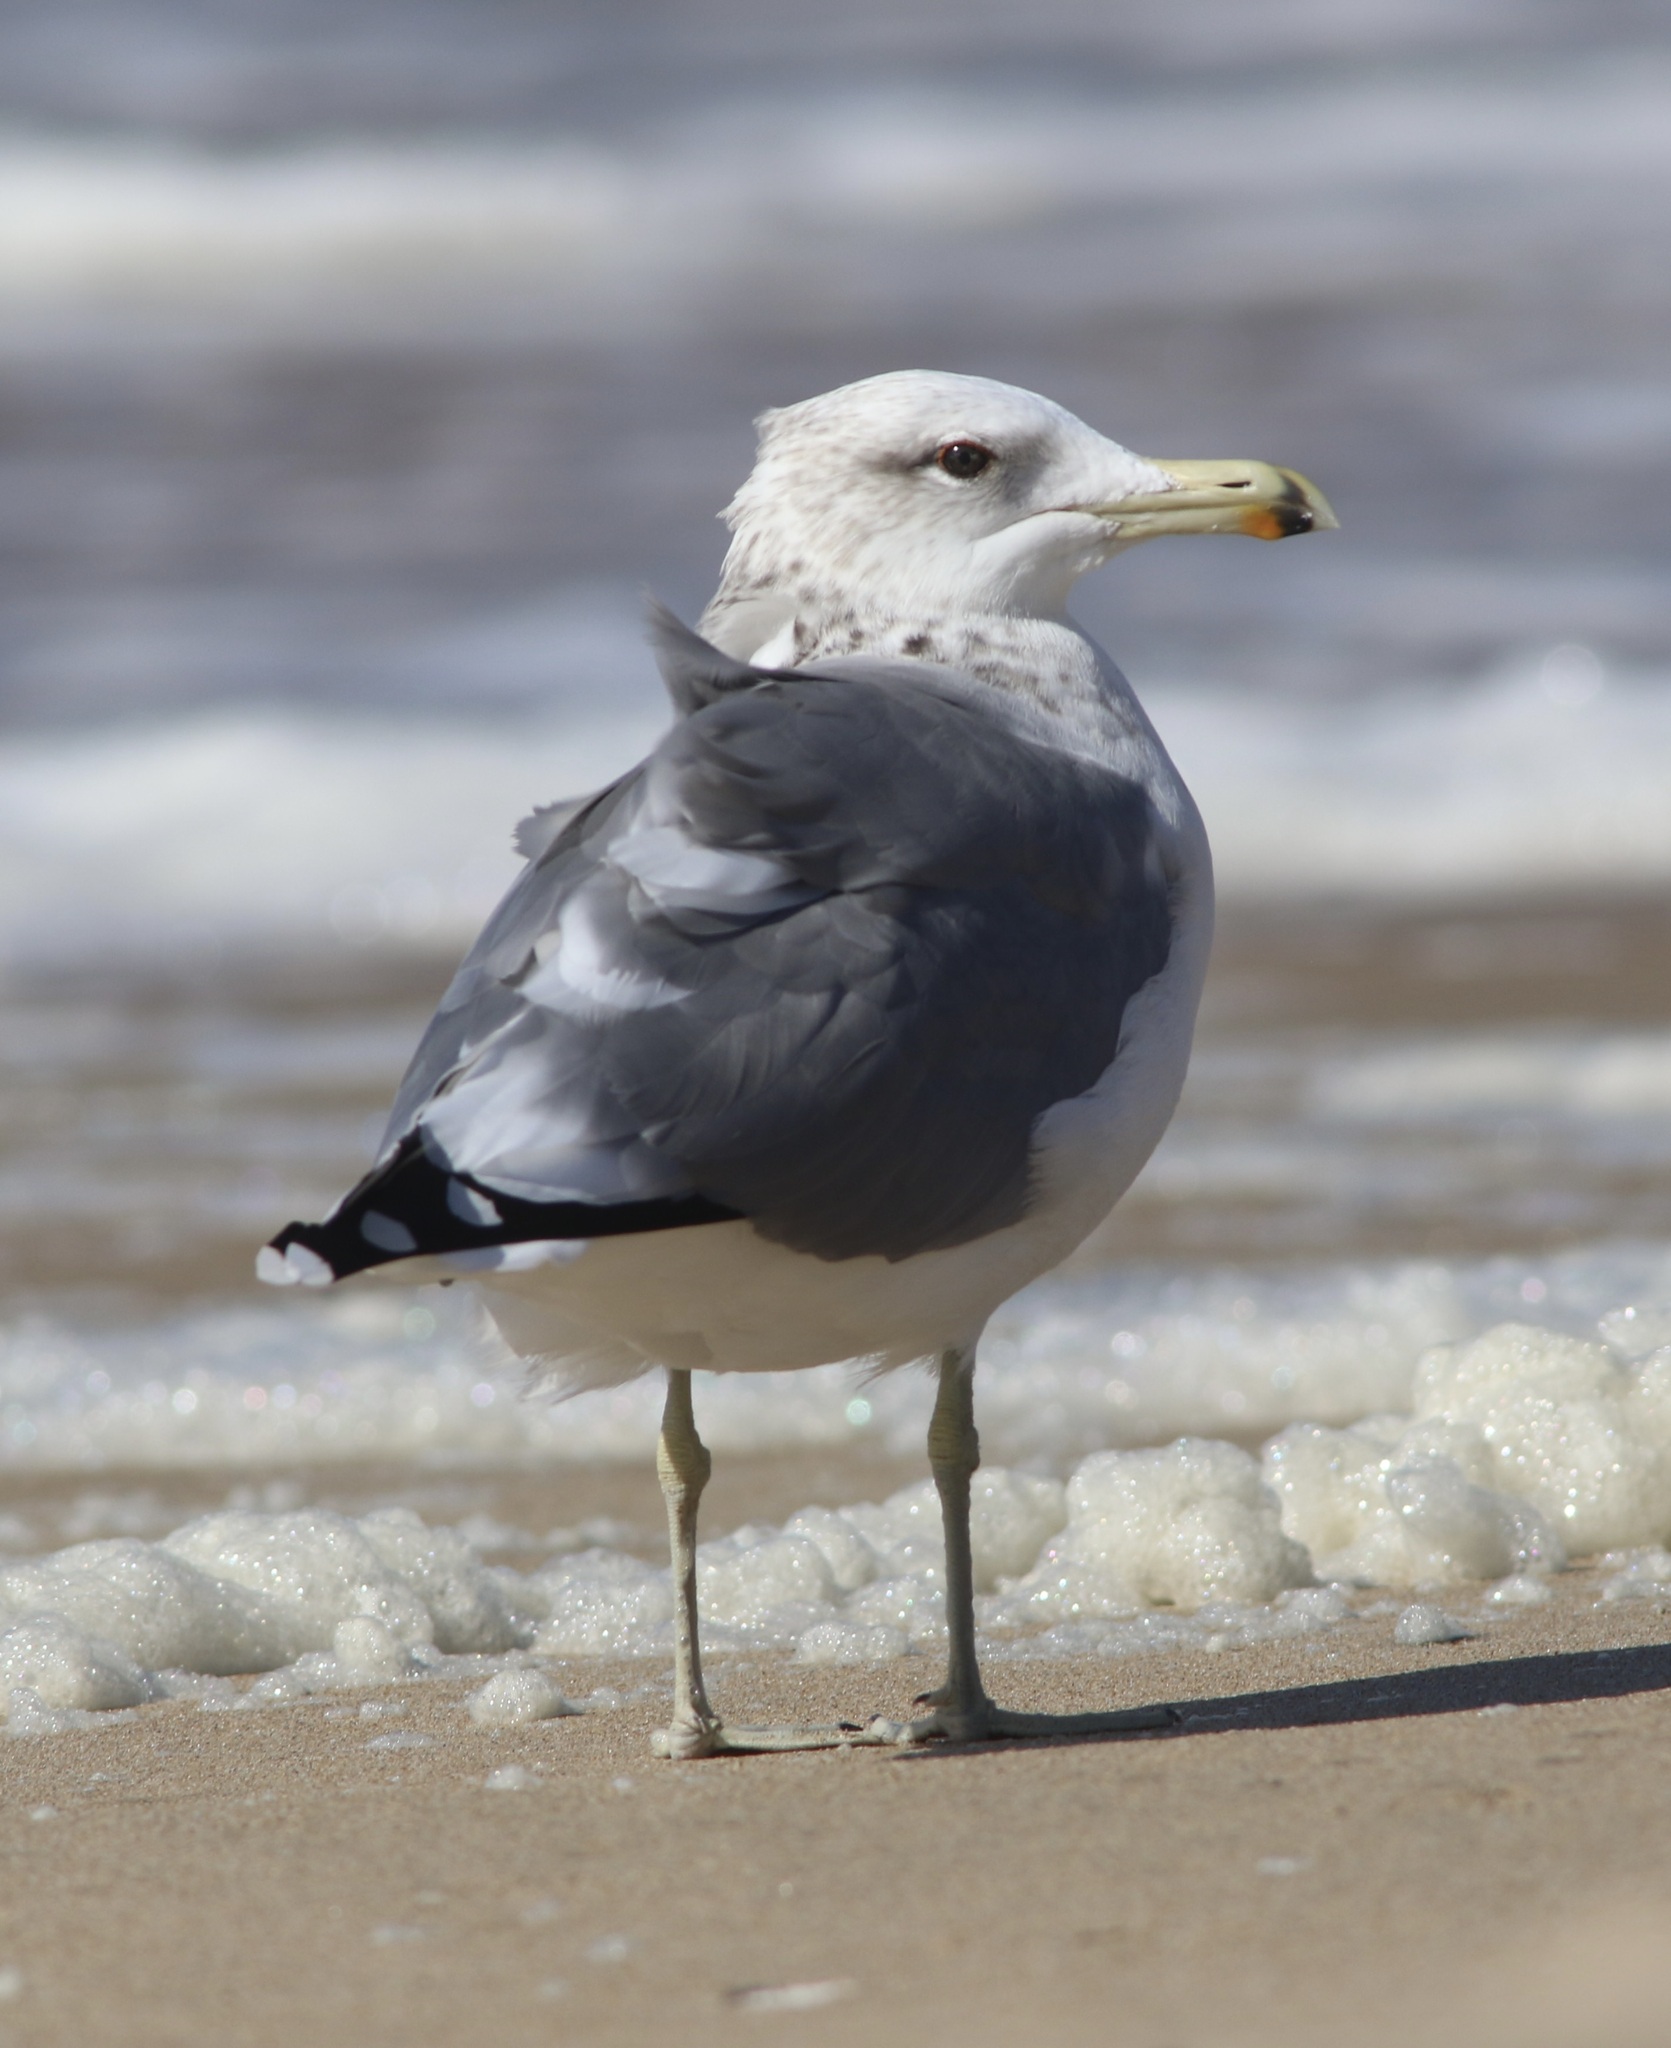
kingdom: Animalia
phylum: Chordata
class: Aves
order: Charadriiformes
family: Laridae
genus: Larus
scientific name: Larus californicus
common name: California gull
